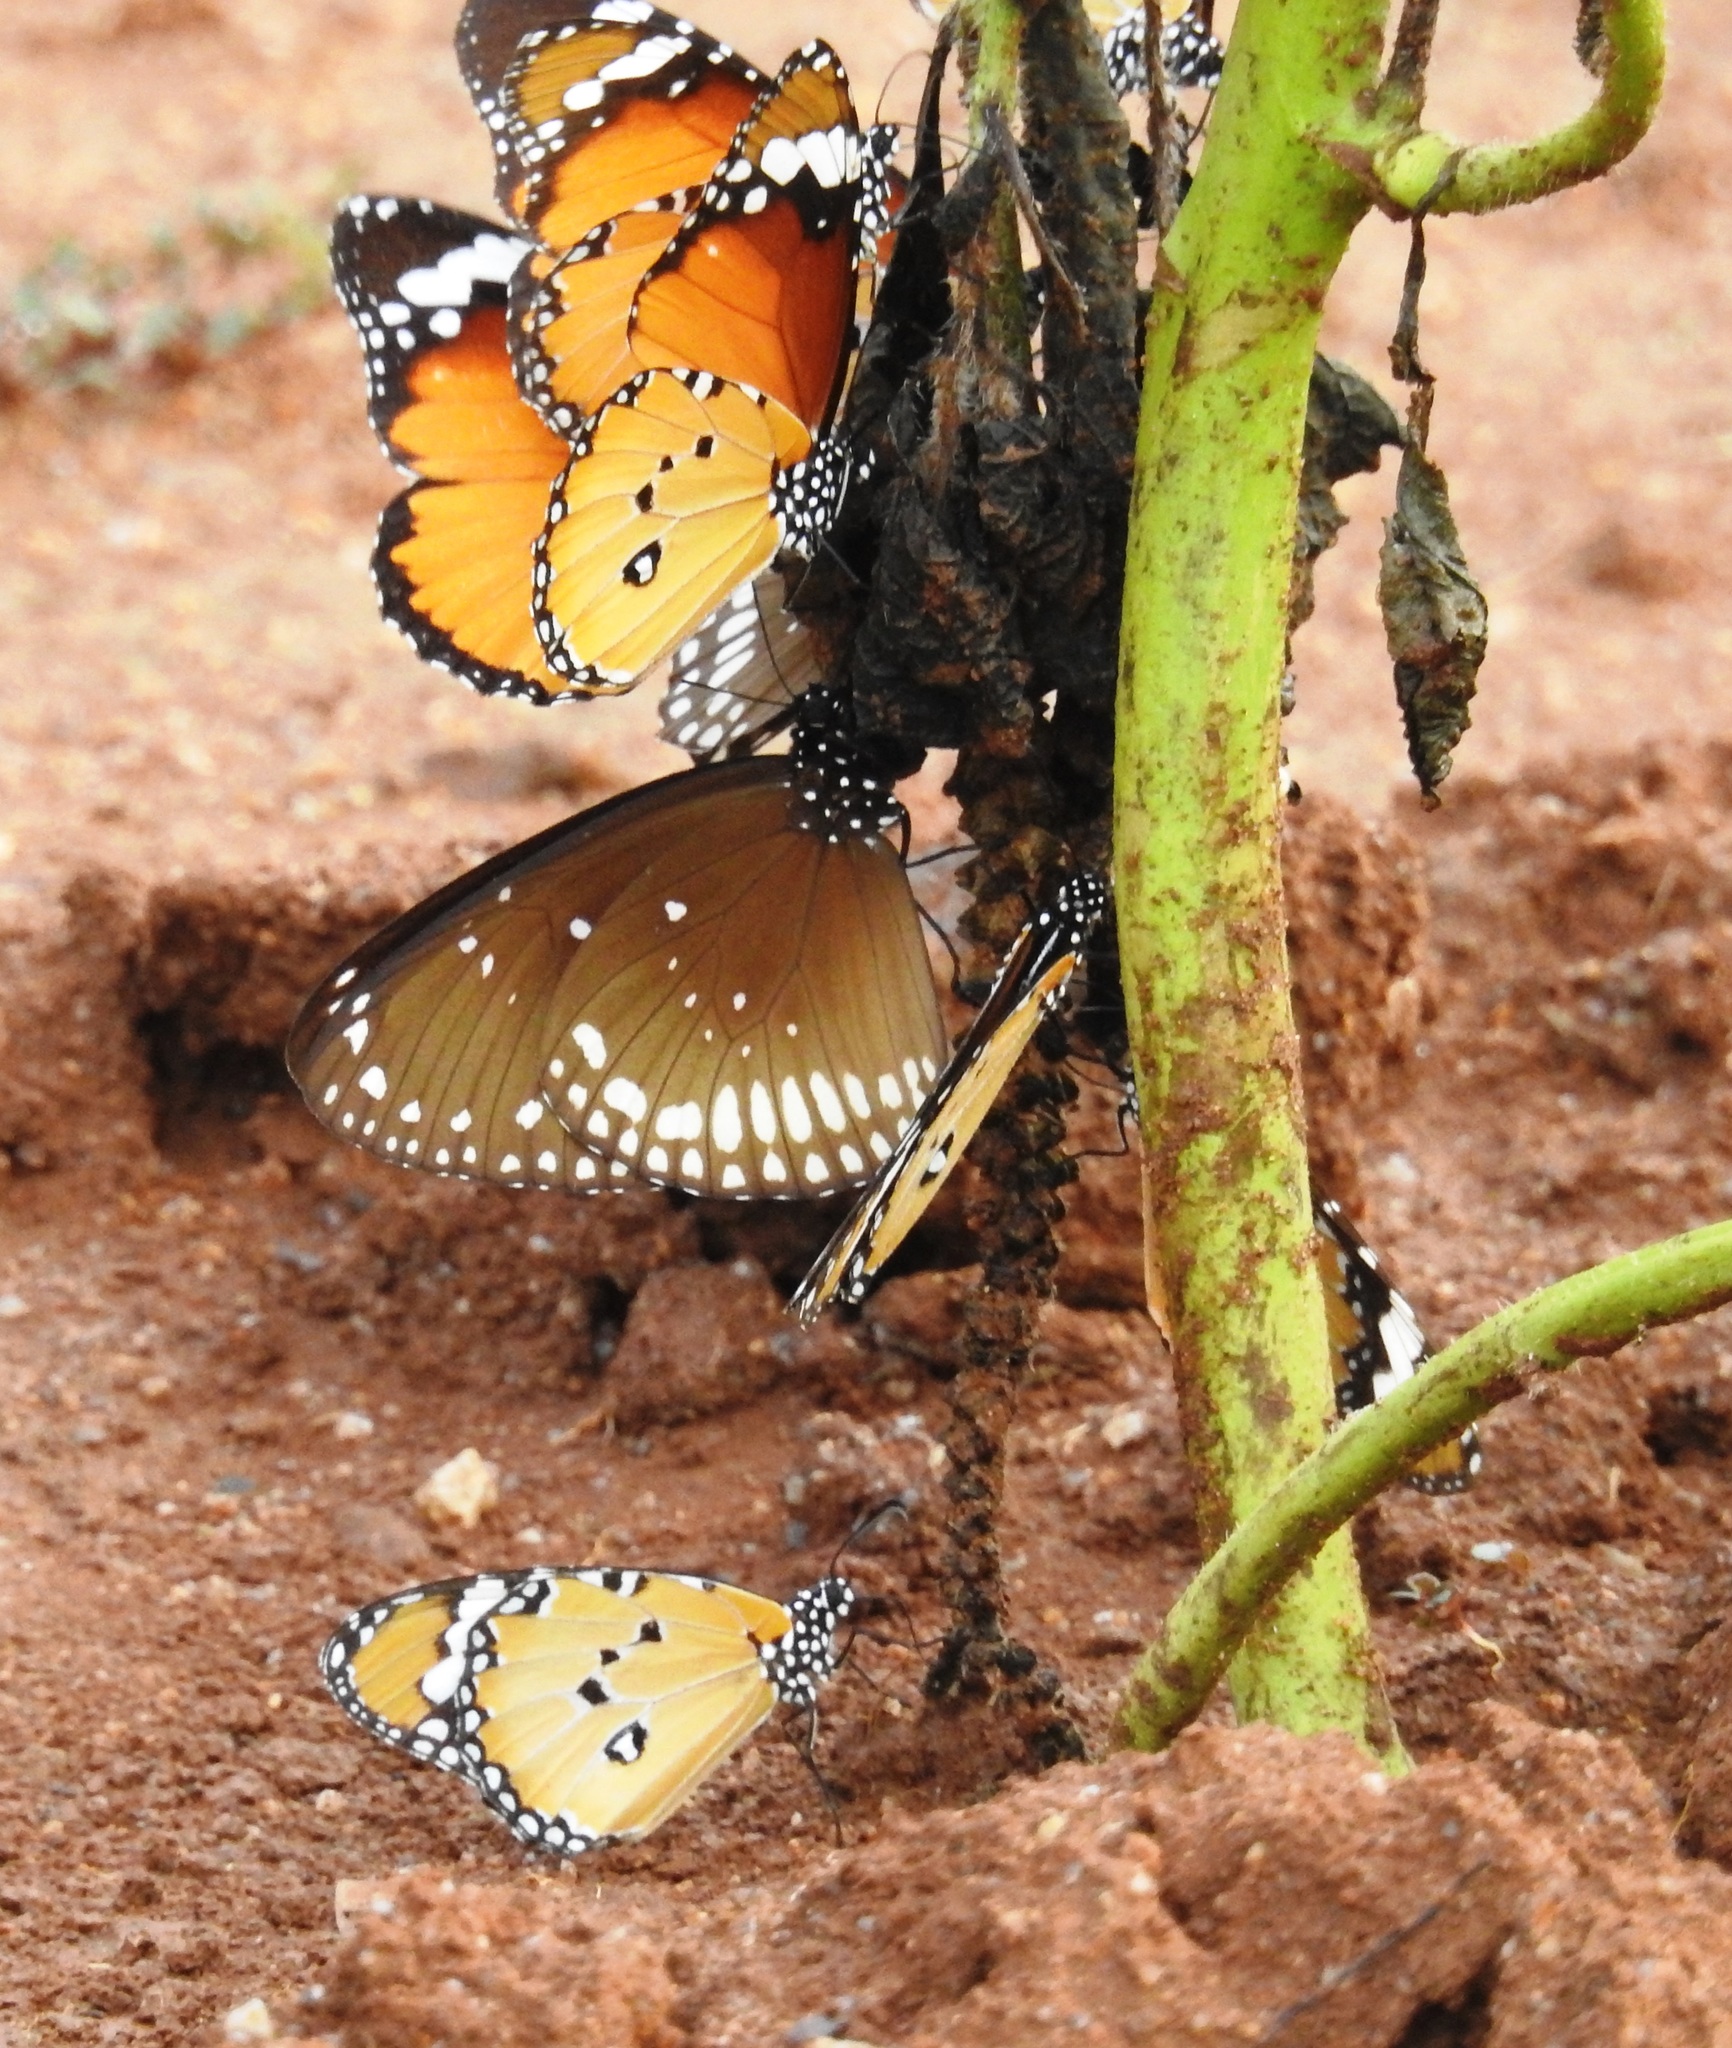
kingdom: Animalia
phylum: Arthropoda
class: Insecta
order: Lepidoptera
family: Nymphalidae
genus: Danaus
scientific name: Danaus chrysippus
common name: Plain tiger
